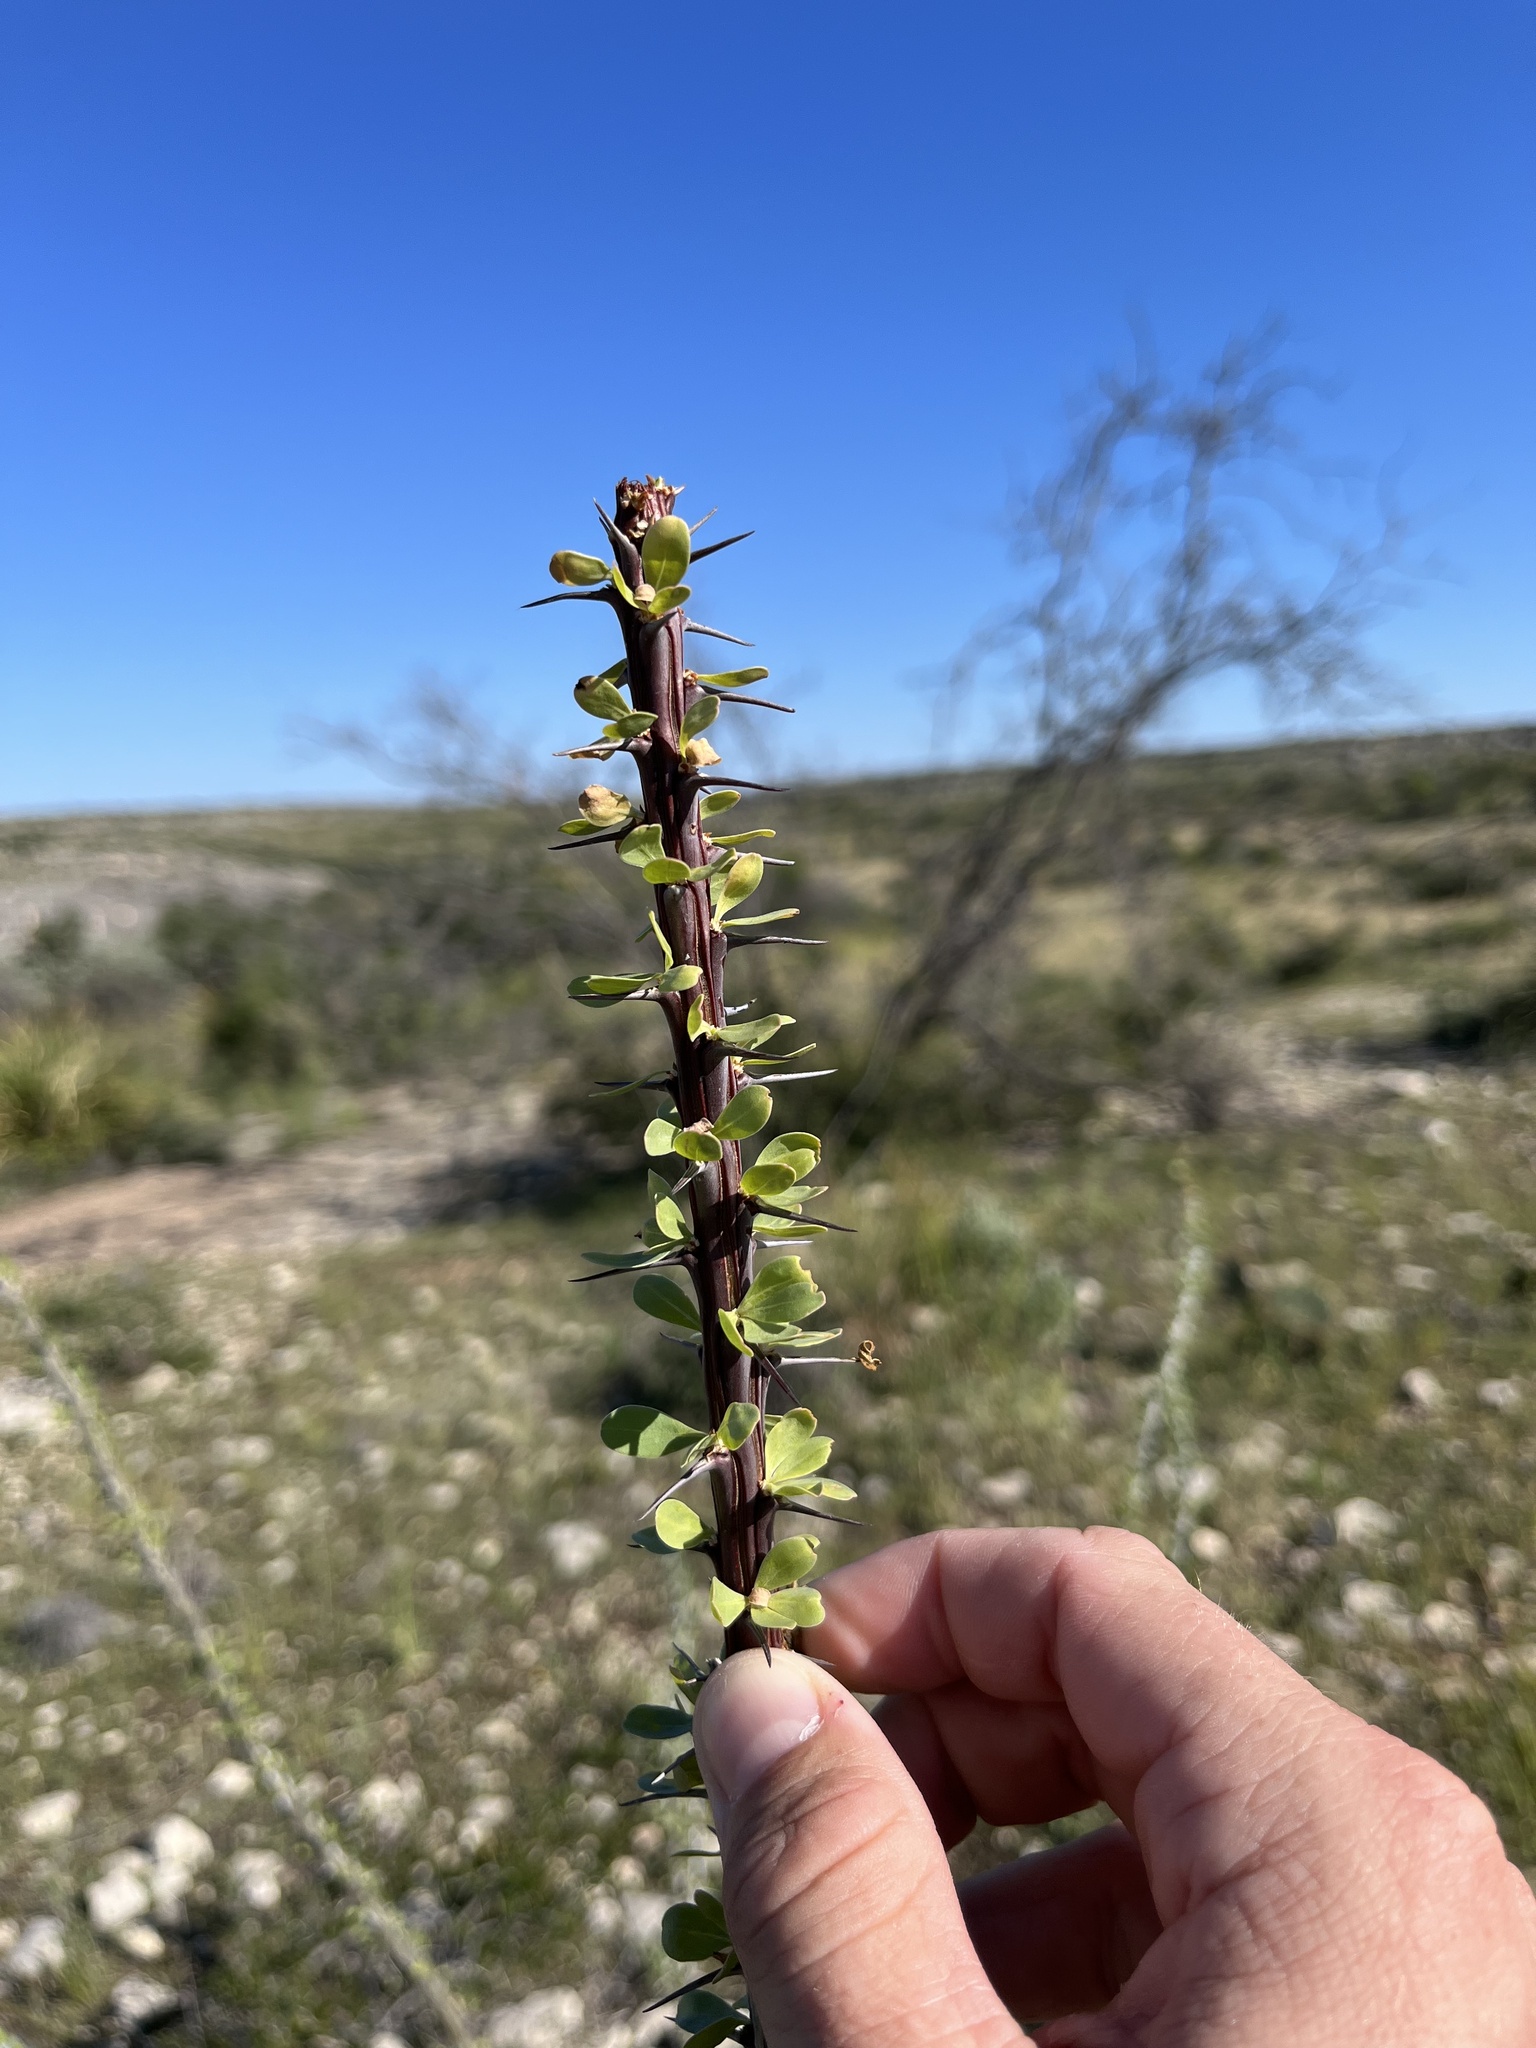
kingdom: Plantae
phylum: Tracheophyta
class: Magnoliopsida
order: Ericales
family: Fouquieriaceae
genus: Fouquieria
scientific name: Fouquieria splendens
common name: Vine-cactus
